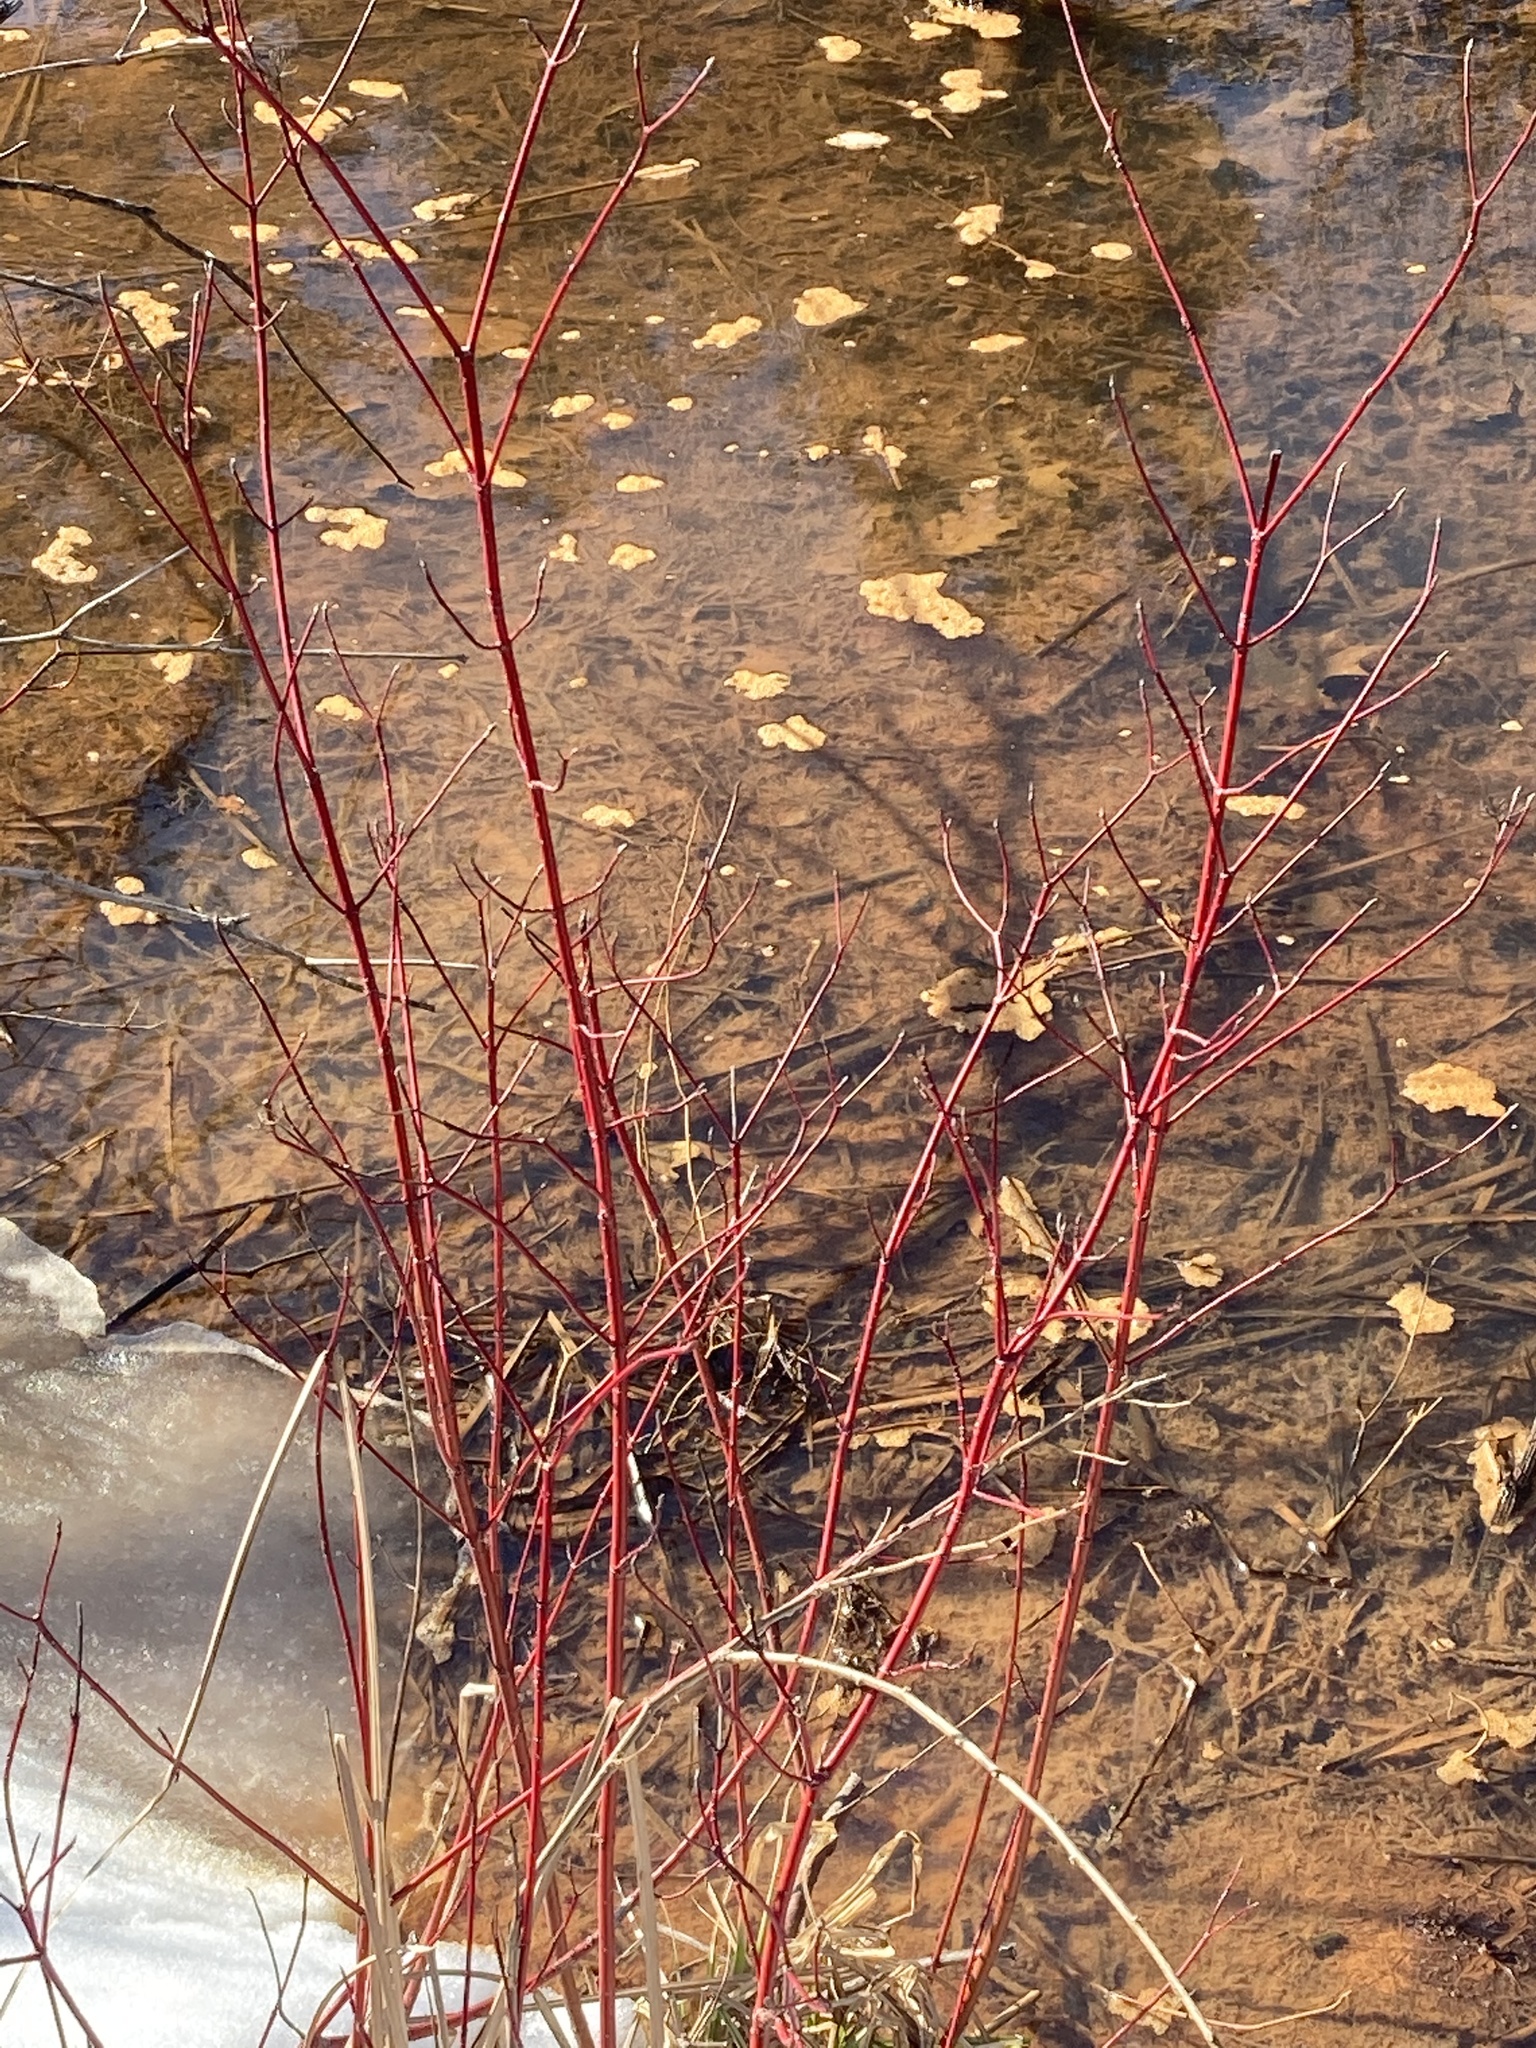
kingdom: Plantae
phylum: Tracheophyta
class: Magnoliopsida
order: Cornales
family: Cornaceae
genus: Cornus
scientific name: Cornus sericea
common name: Red-osier dogwood
